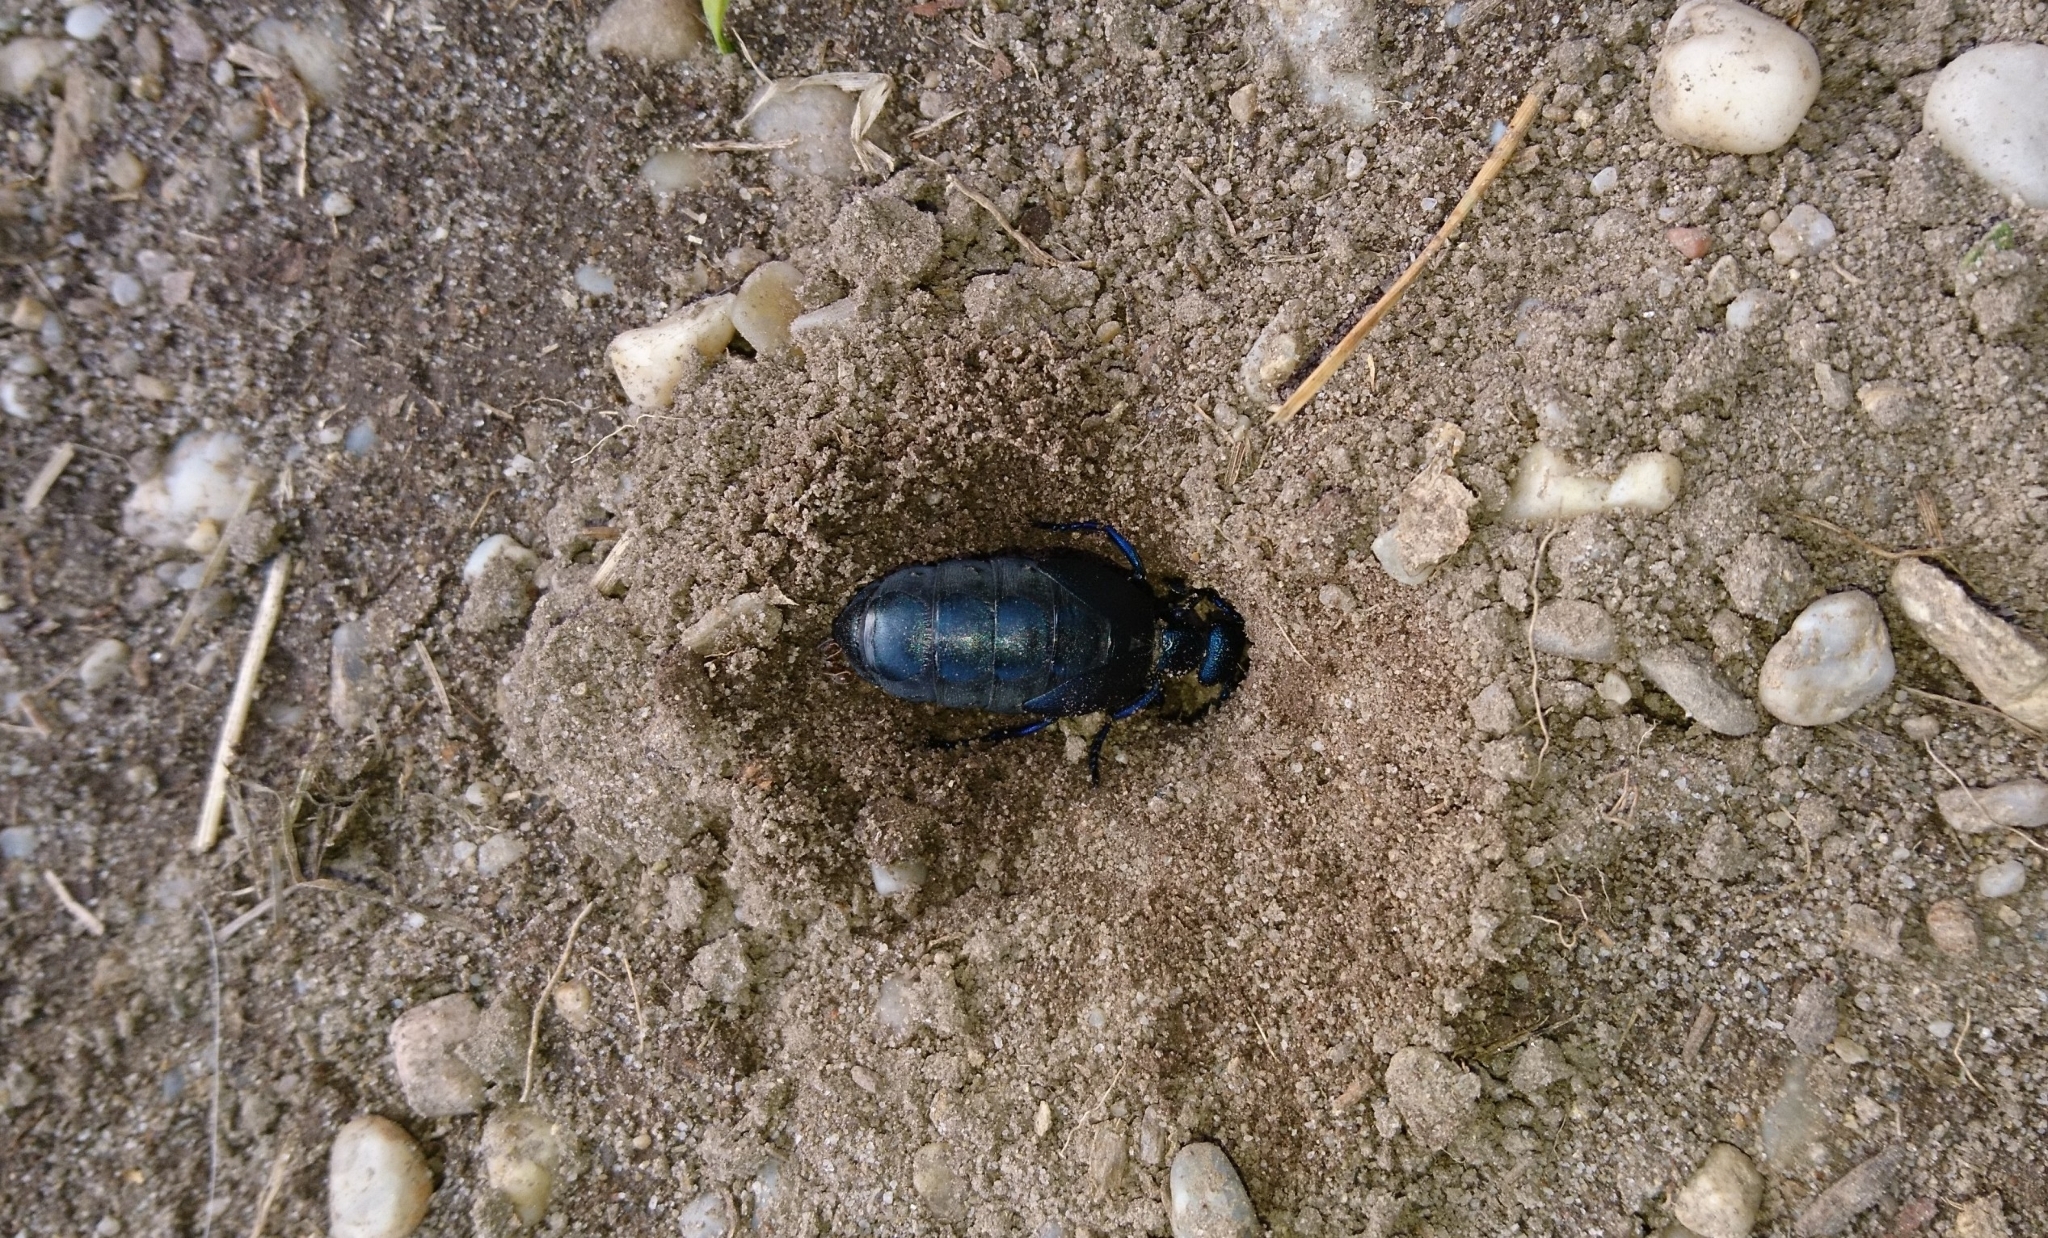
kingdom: Animalia
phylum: Arthropoda
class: Insecta
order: Coleoptera
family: Meloidae
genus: Meloe
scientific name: Meloe proscarabaeus
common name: Black oil-beetle
